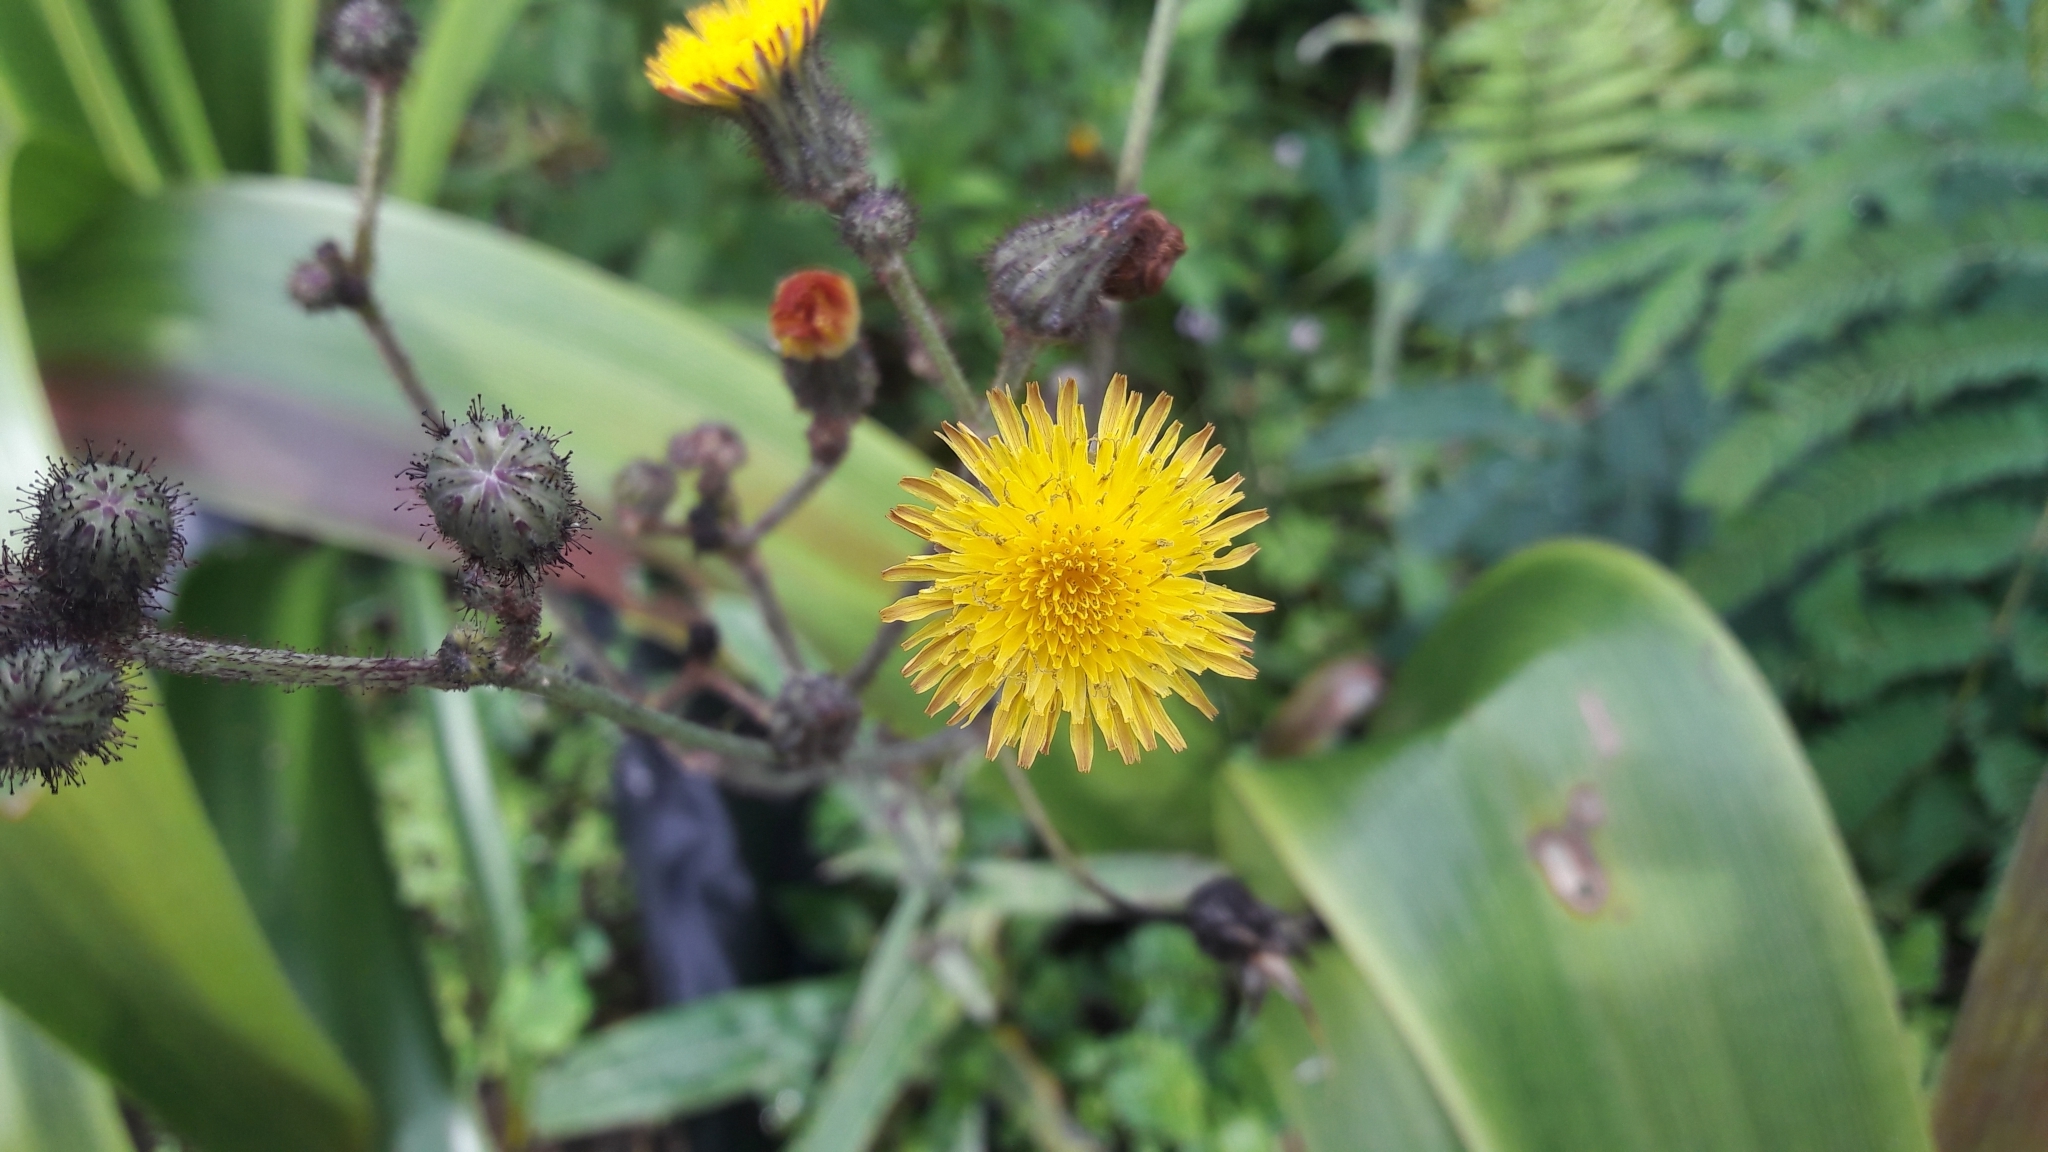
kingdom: Plantae
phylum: Tracheophyta
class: Magnoliopsida
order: Asterales
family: Asteraceae
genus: Sonchus
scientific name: Sonchus arvensis
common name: Perennial sow-thistle
